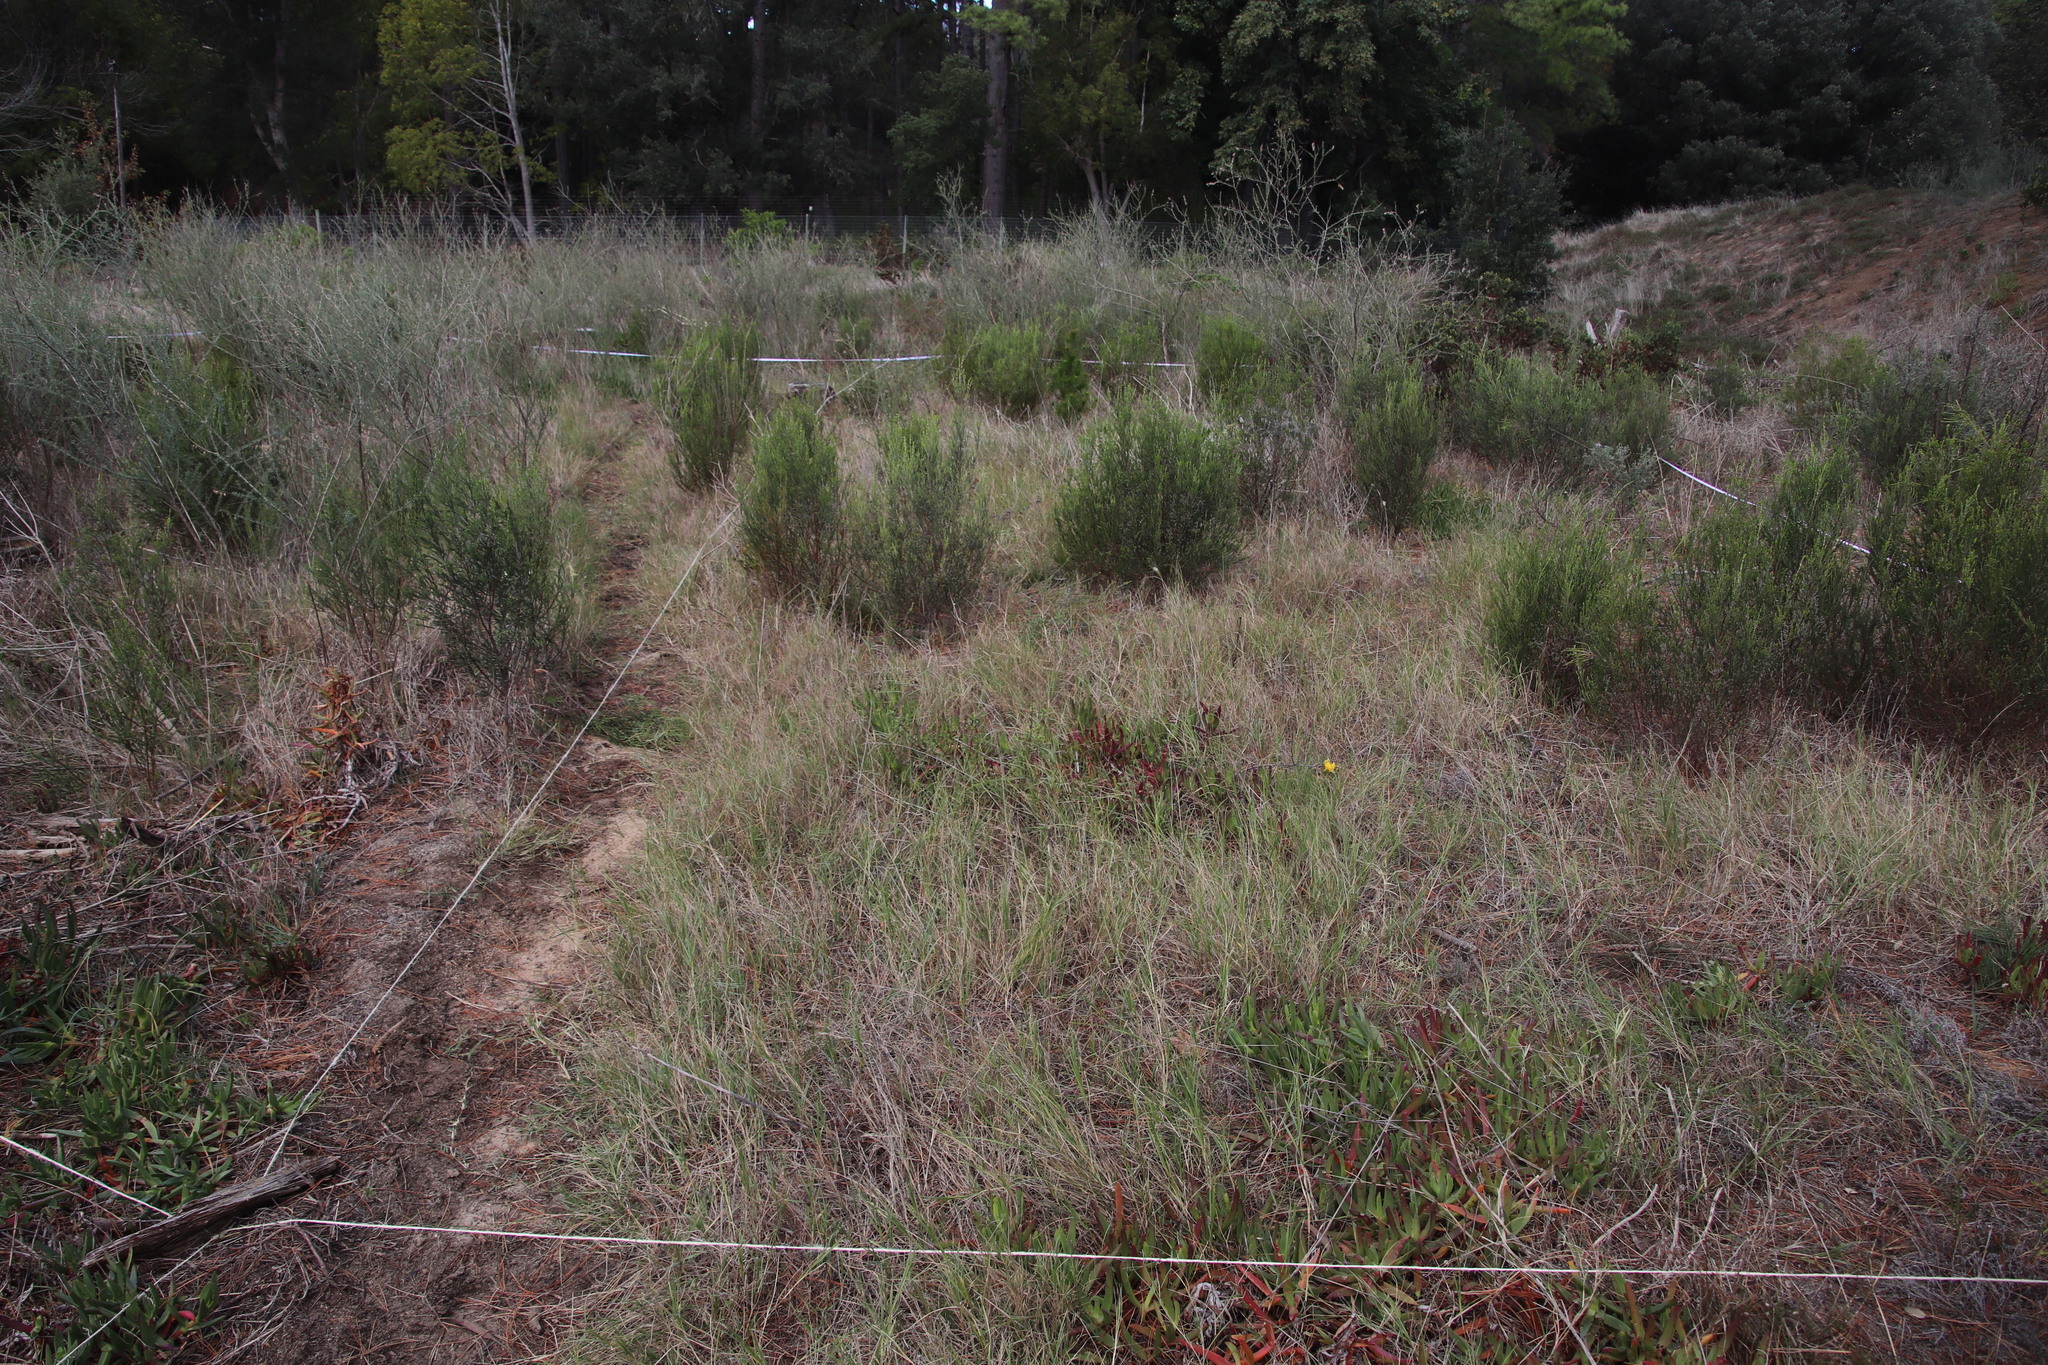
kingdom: Plantae
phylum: Tracheophyta
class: Liliopsida
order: Poales
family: Poaceae
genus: Cynodon
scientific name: Cynodon dactylon
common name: Bermuda grass
